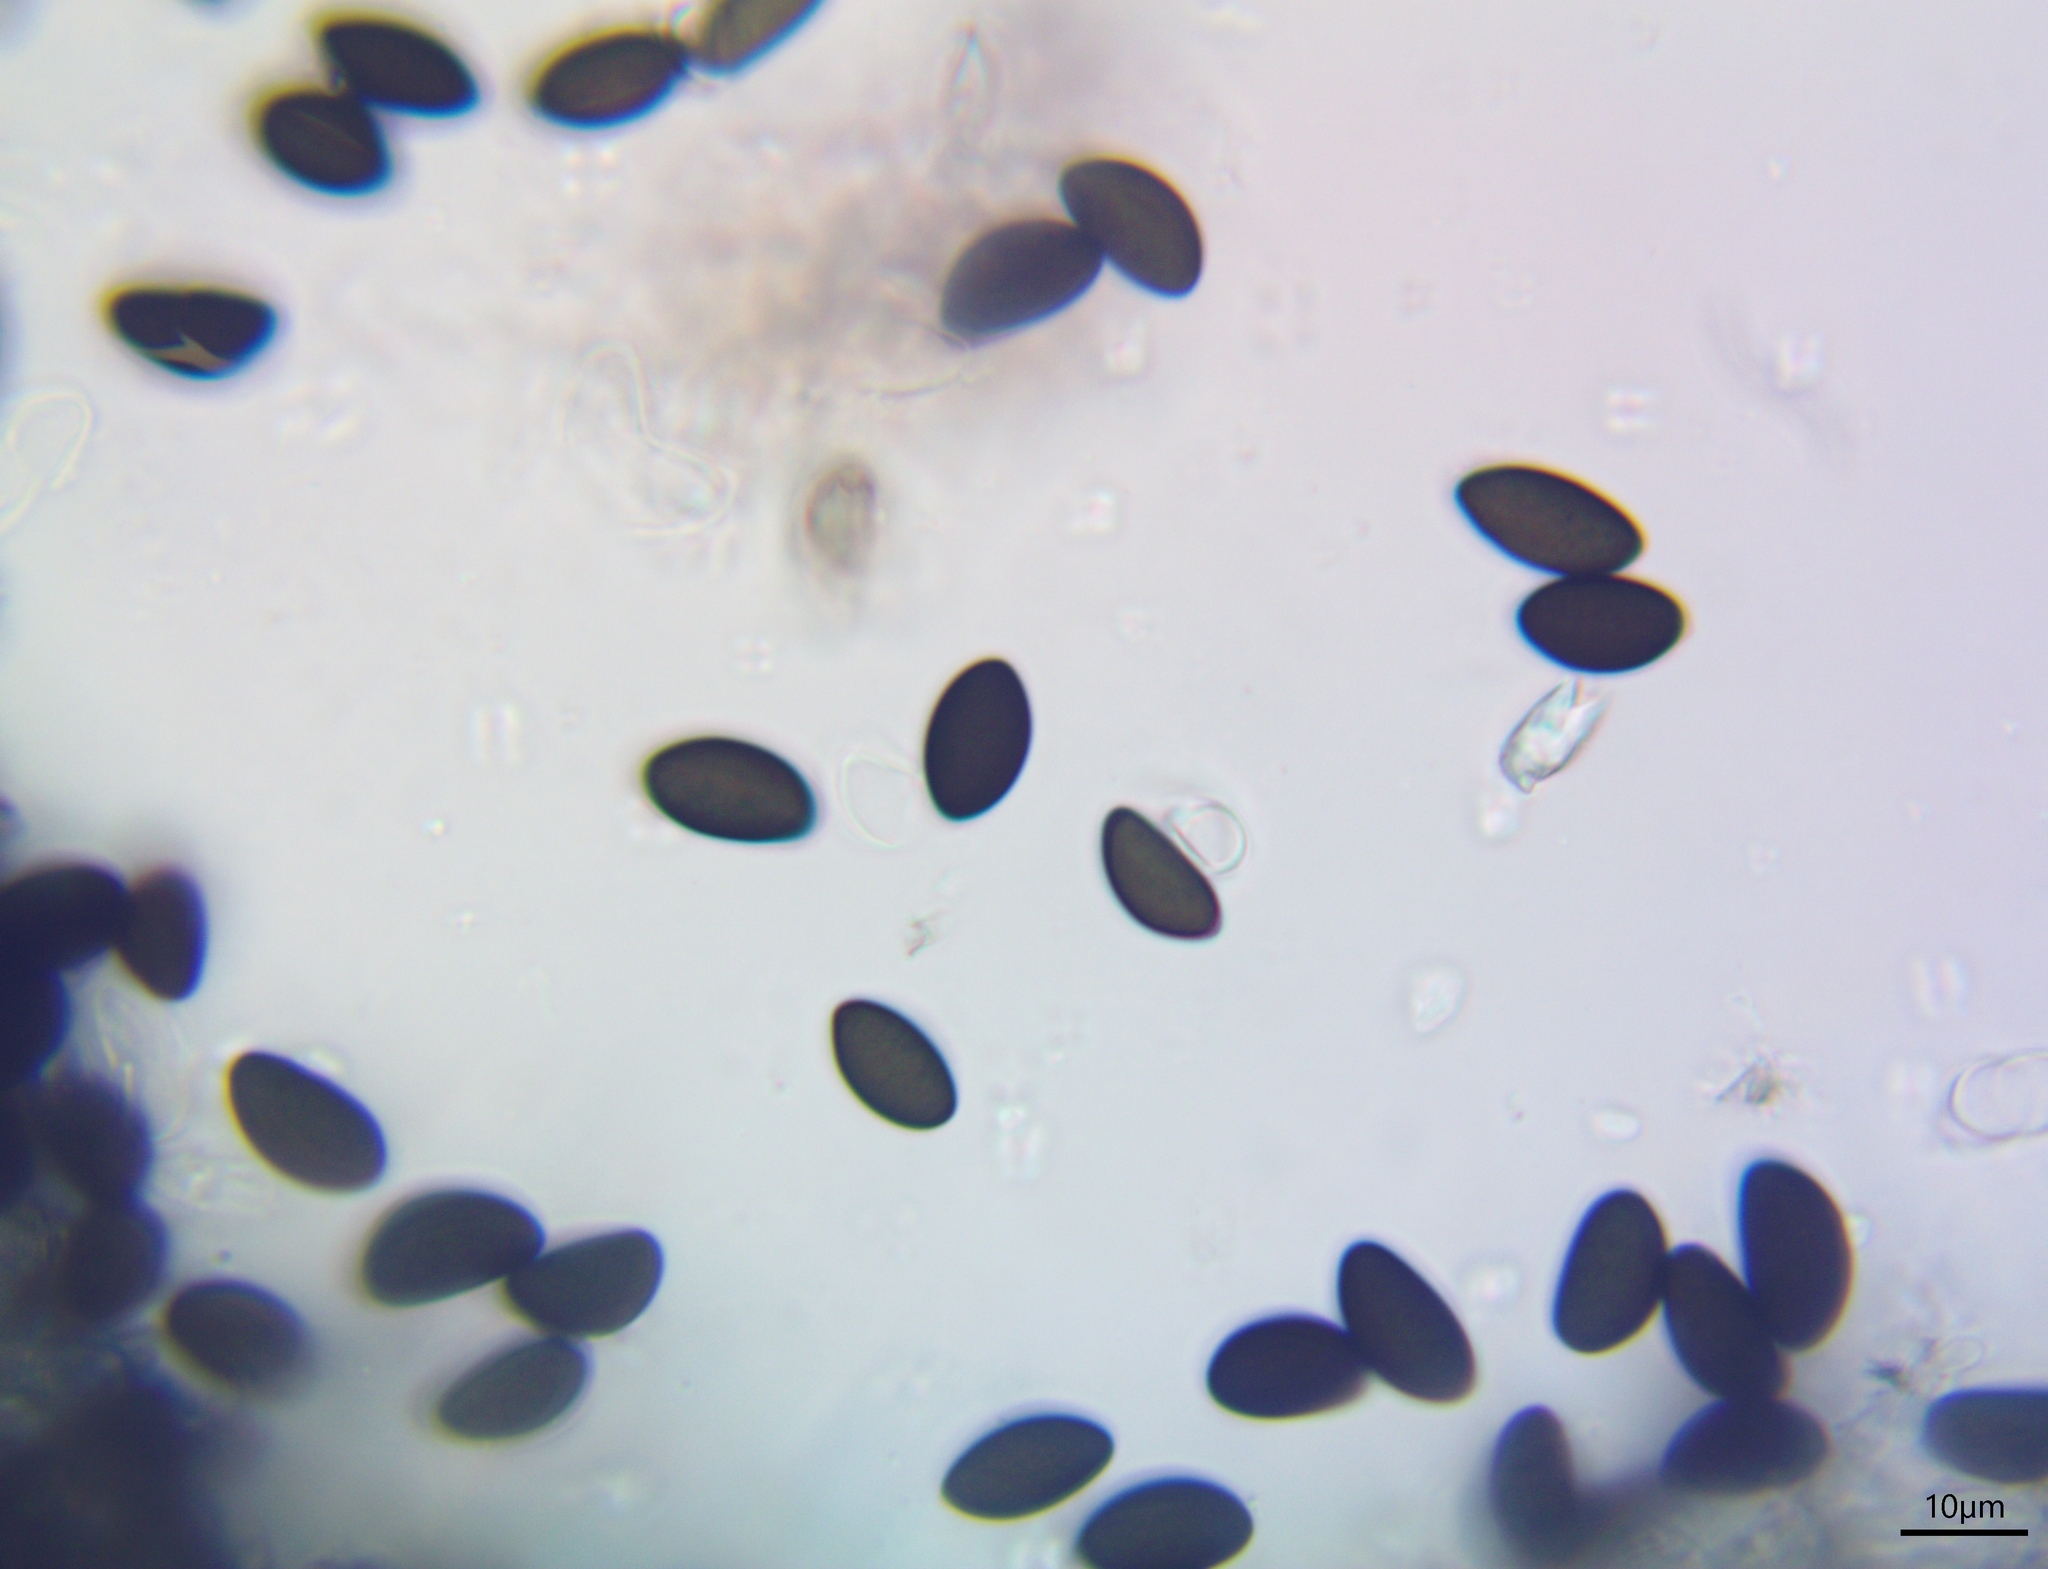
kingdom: Fungi
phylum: Ascomycota
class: Sordariomycetes
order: Xylariales
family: Hypoxylaceae
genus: Daldinia
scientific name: Daldinia petriniae
